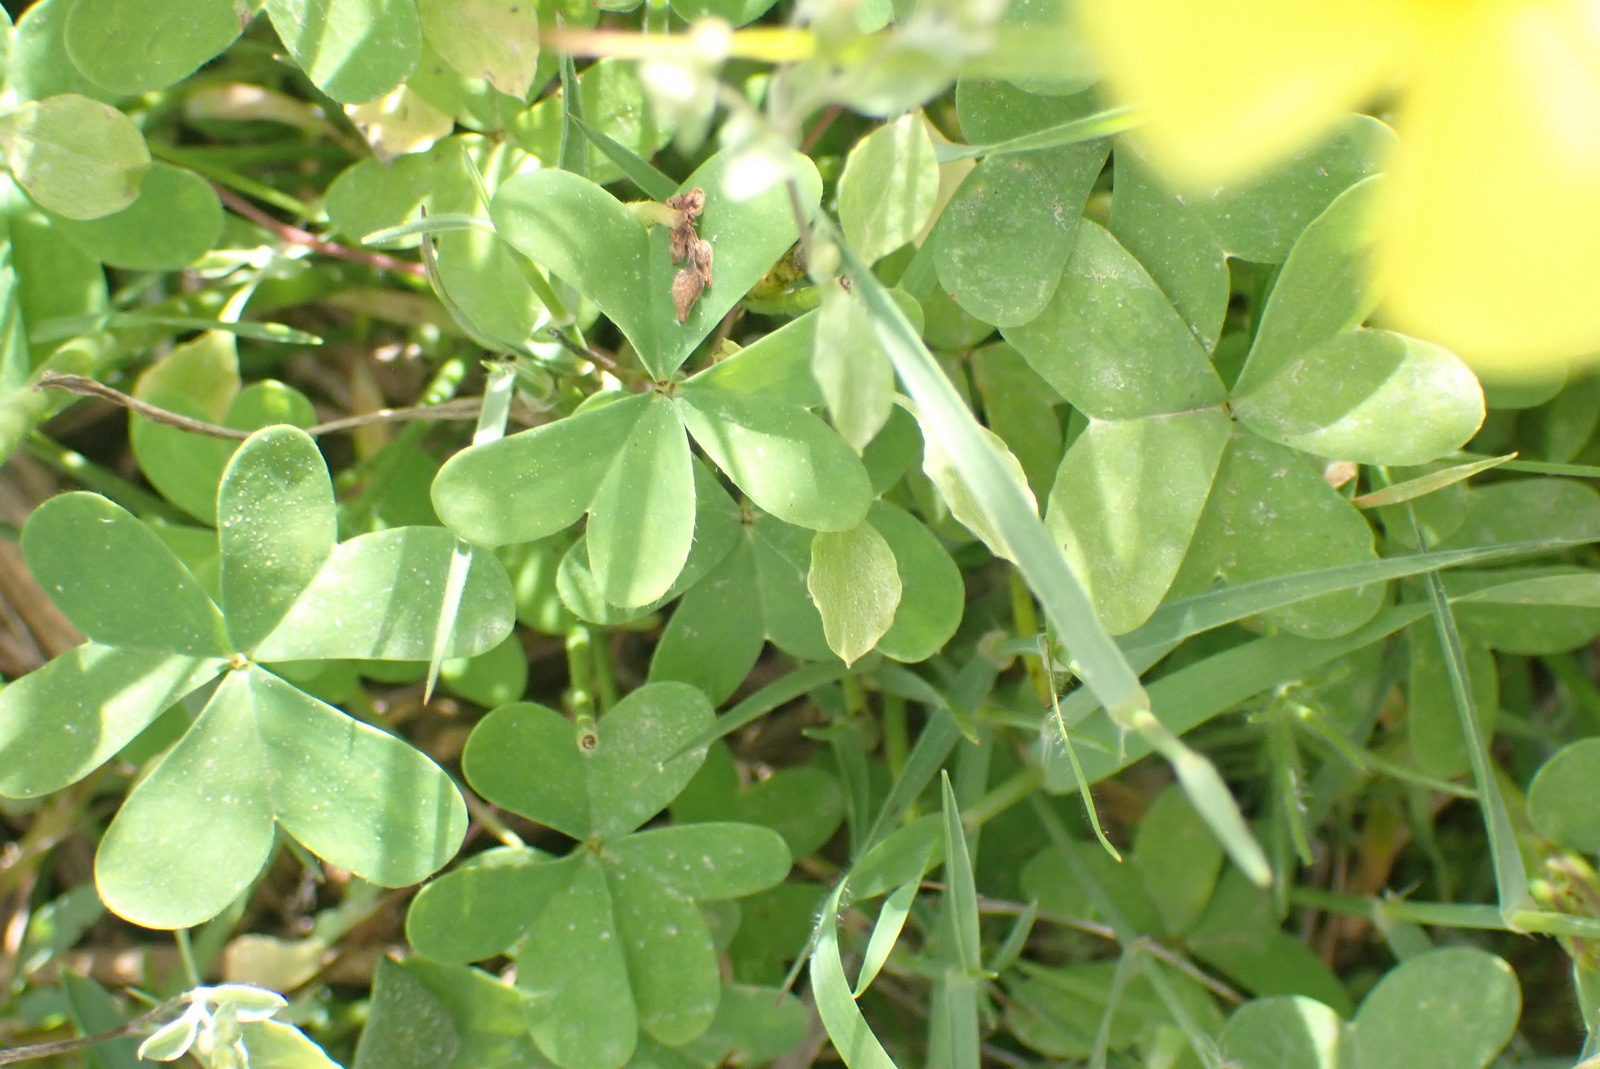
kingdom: Plantae
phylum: Tracheophyta
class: Magnoliopsida
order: Oxalidales
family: Oxalidaceae
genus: Oxalis
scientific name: Oxalis pes-caprae
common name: Bermuda-buttercup
